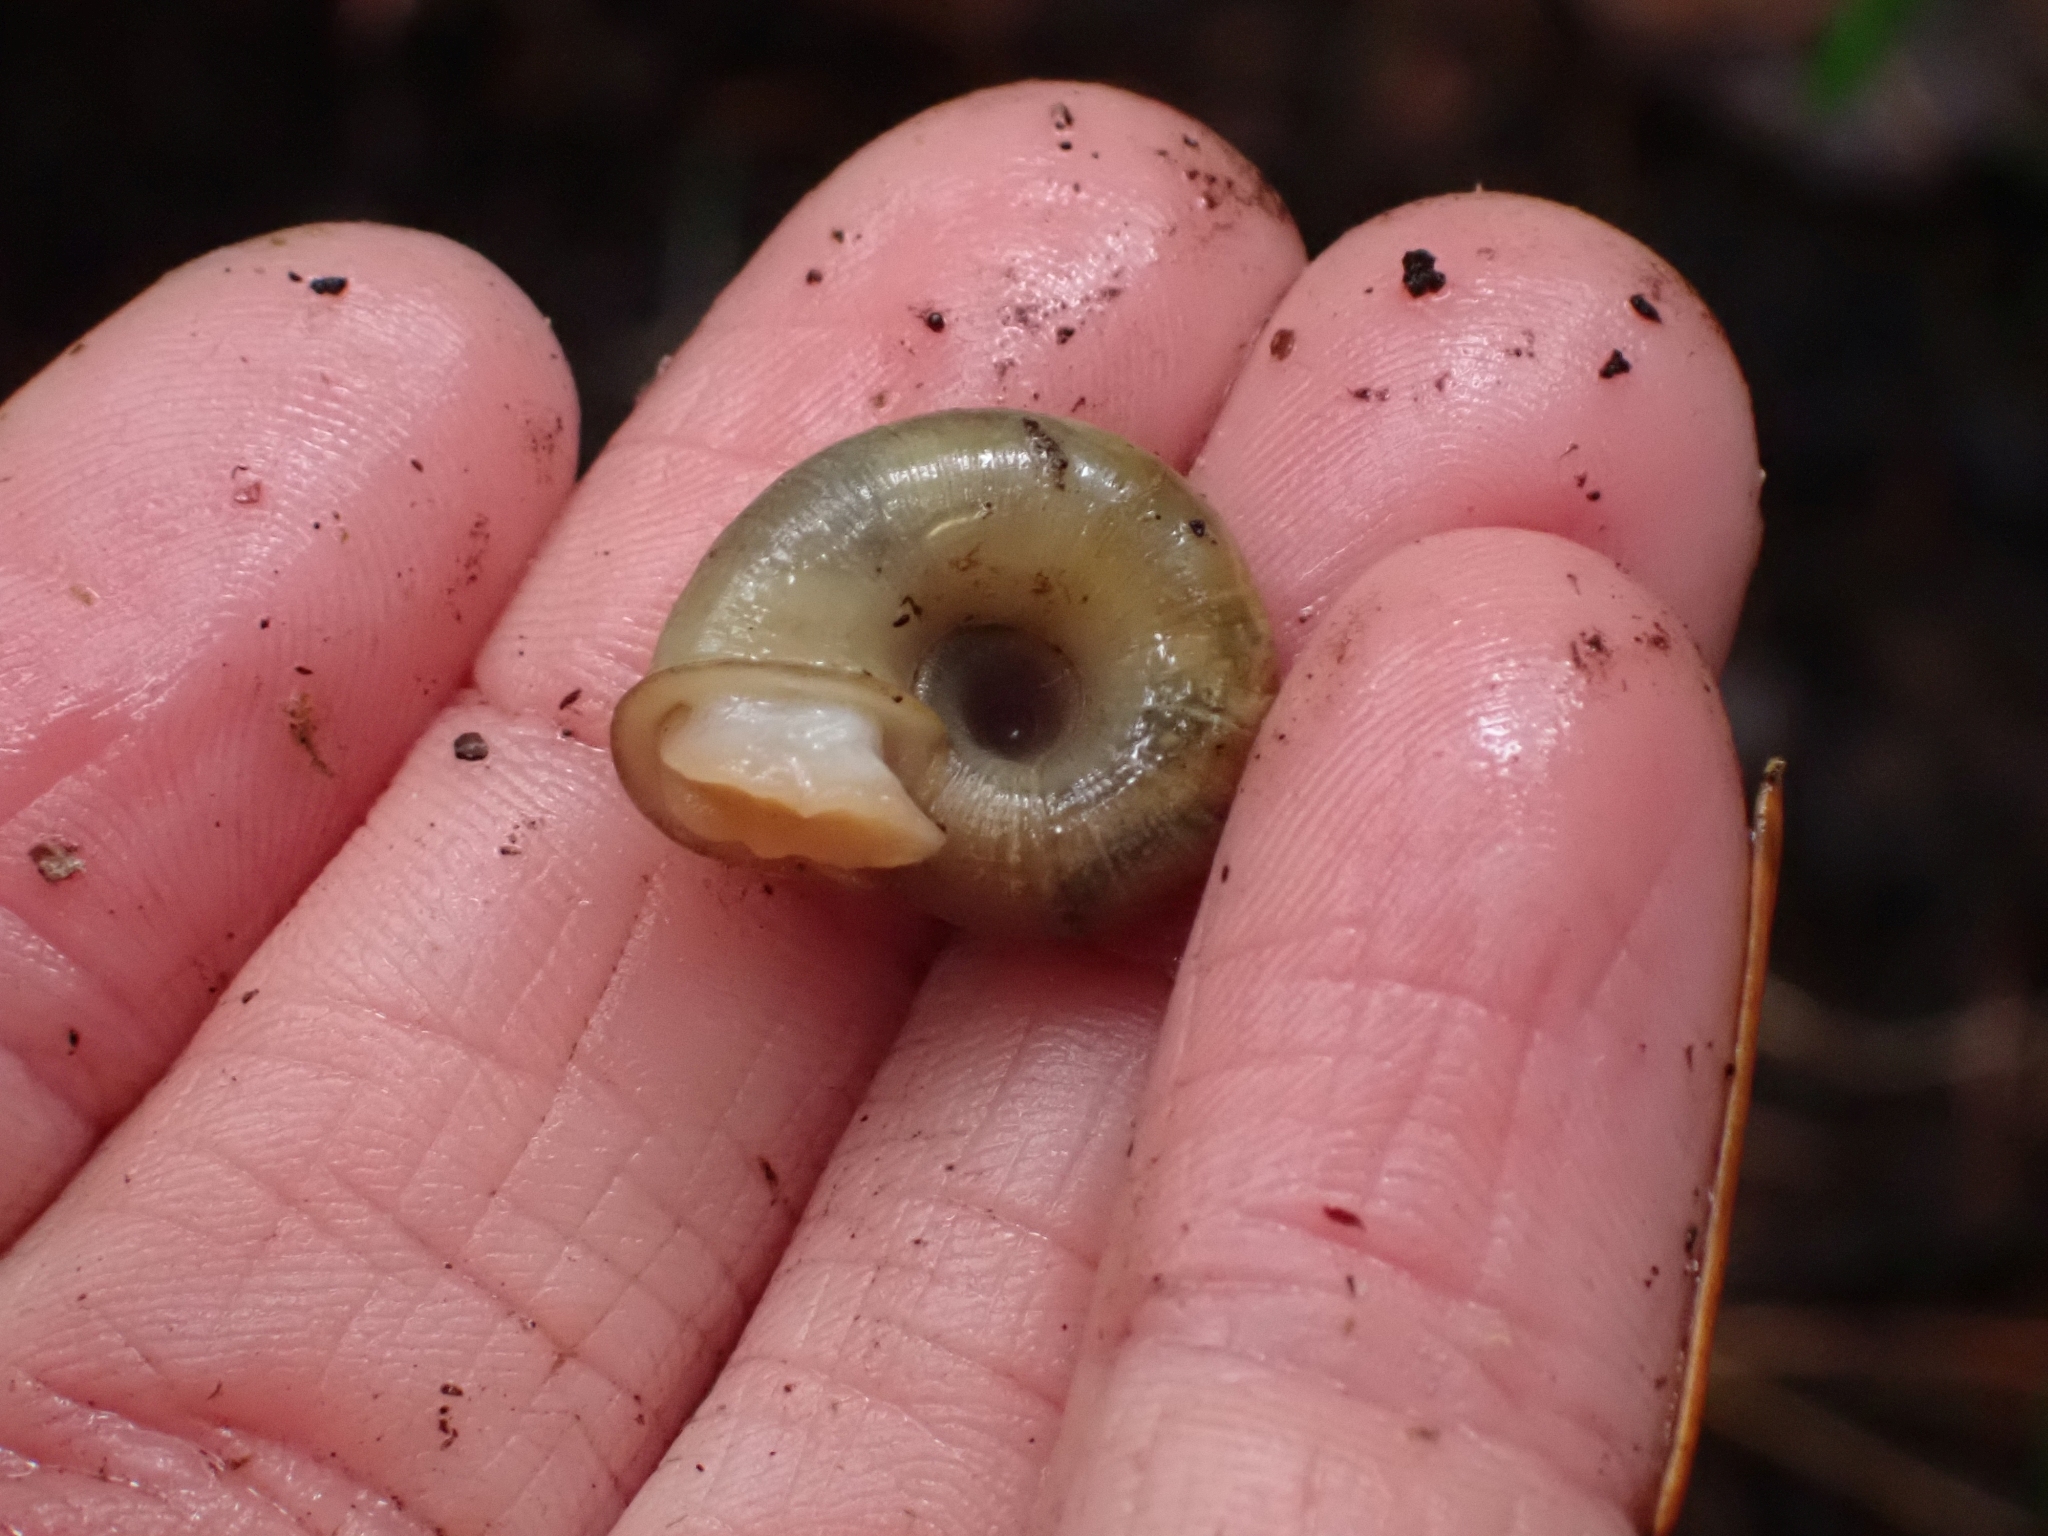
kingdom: Animalia
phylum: Mollusca
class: Gastropoda
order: Stylommatophora
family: Haplotrematidae
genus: Ancotrema
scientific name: Ancotrema sportella
